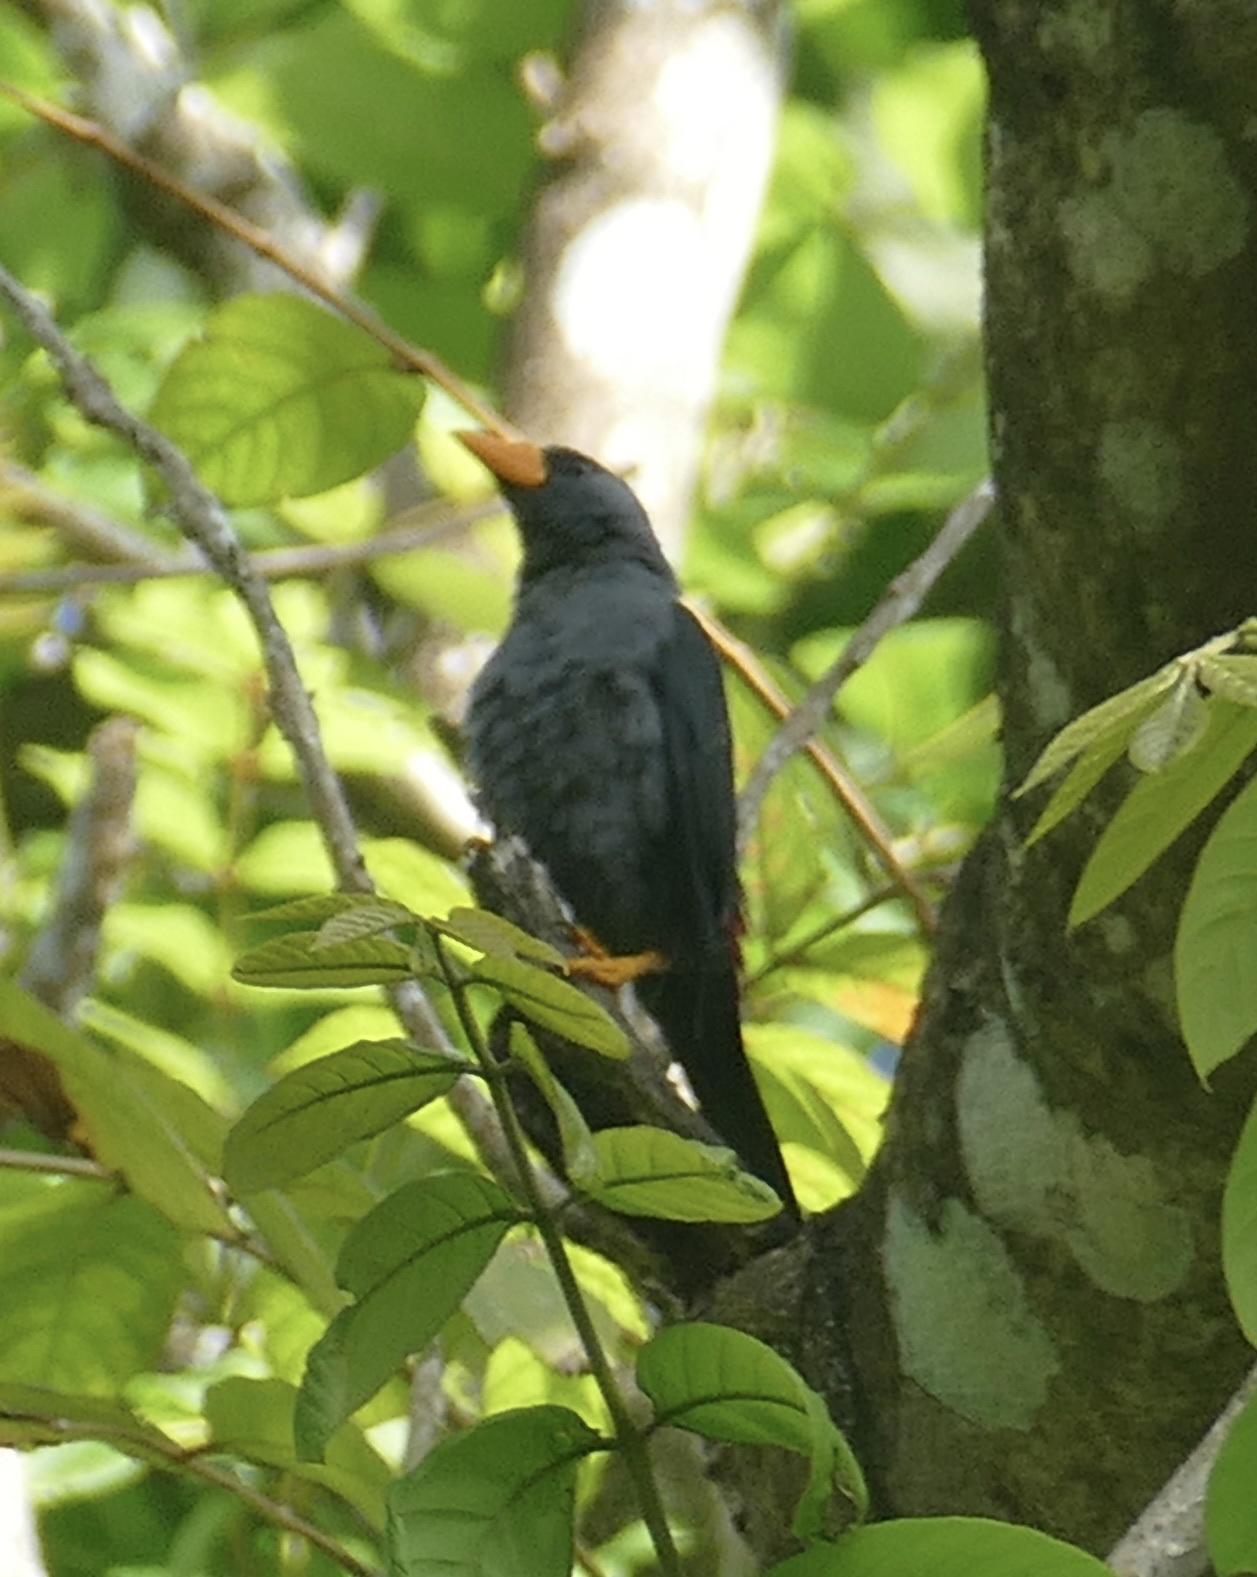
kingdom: Animalia
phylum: Chordata
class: Aves
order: Passeriformes
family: Sturnidae
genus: Scissirostrum
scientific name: Scissirostrum dubium
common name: Grosbeak starling
